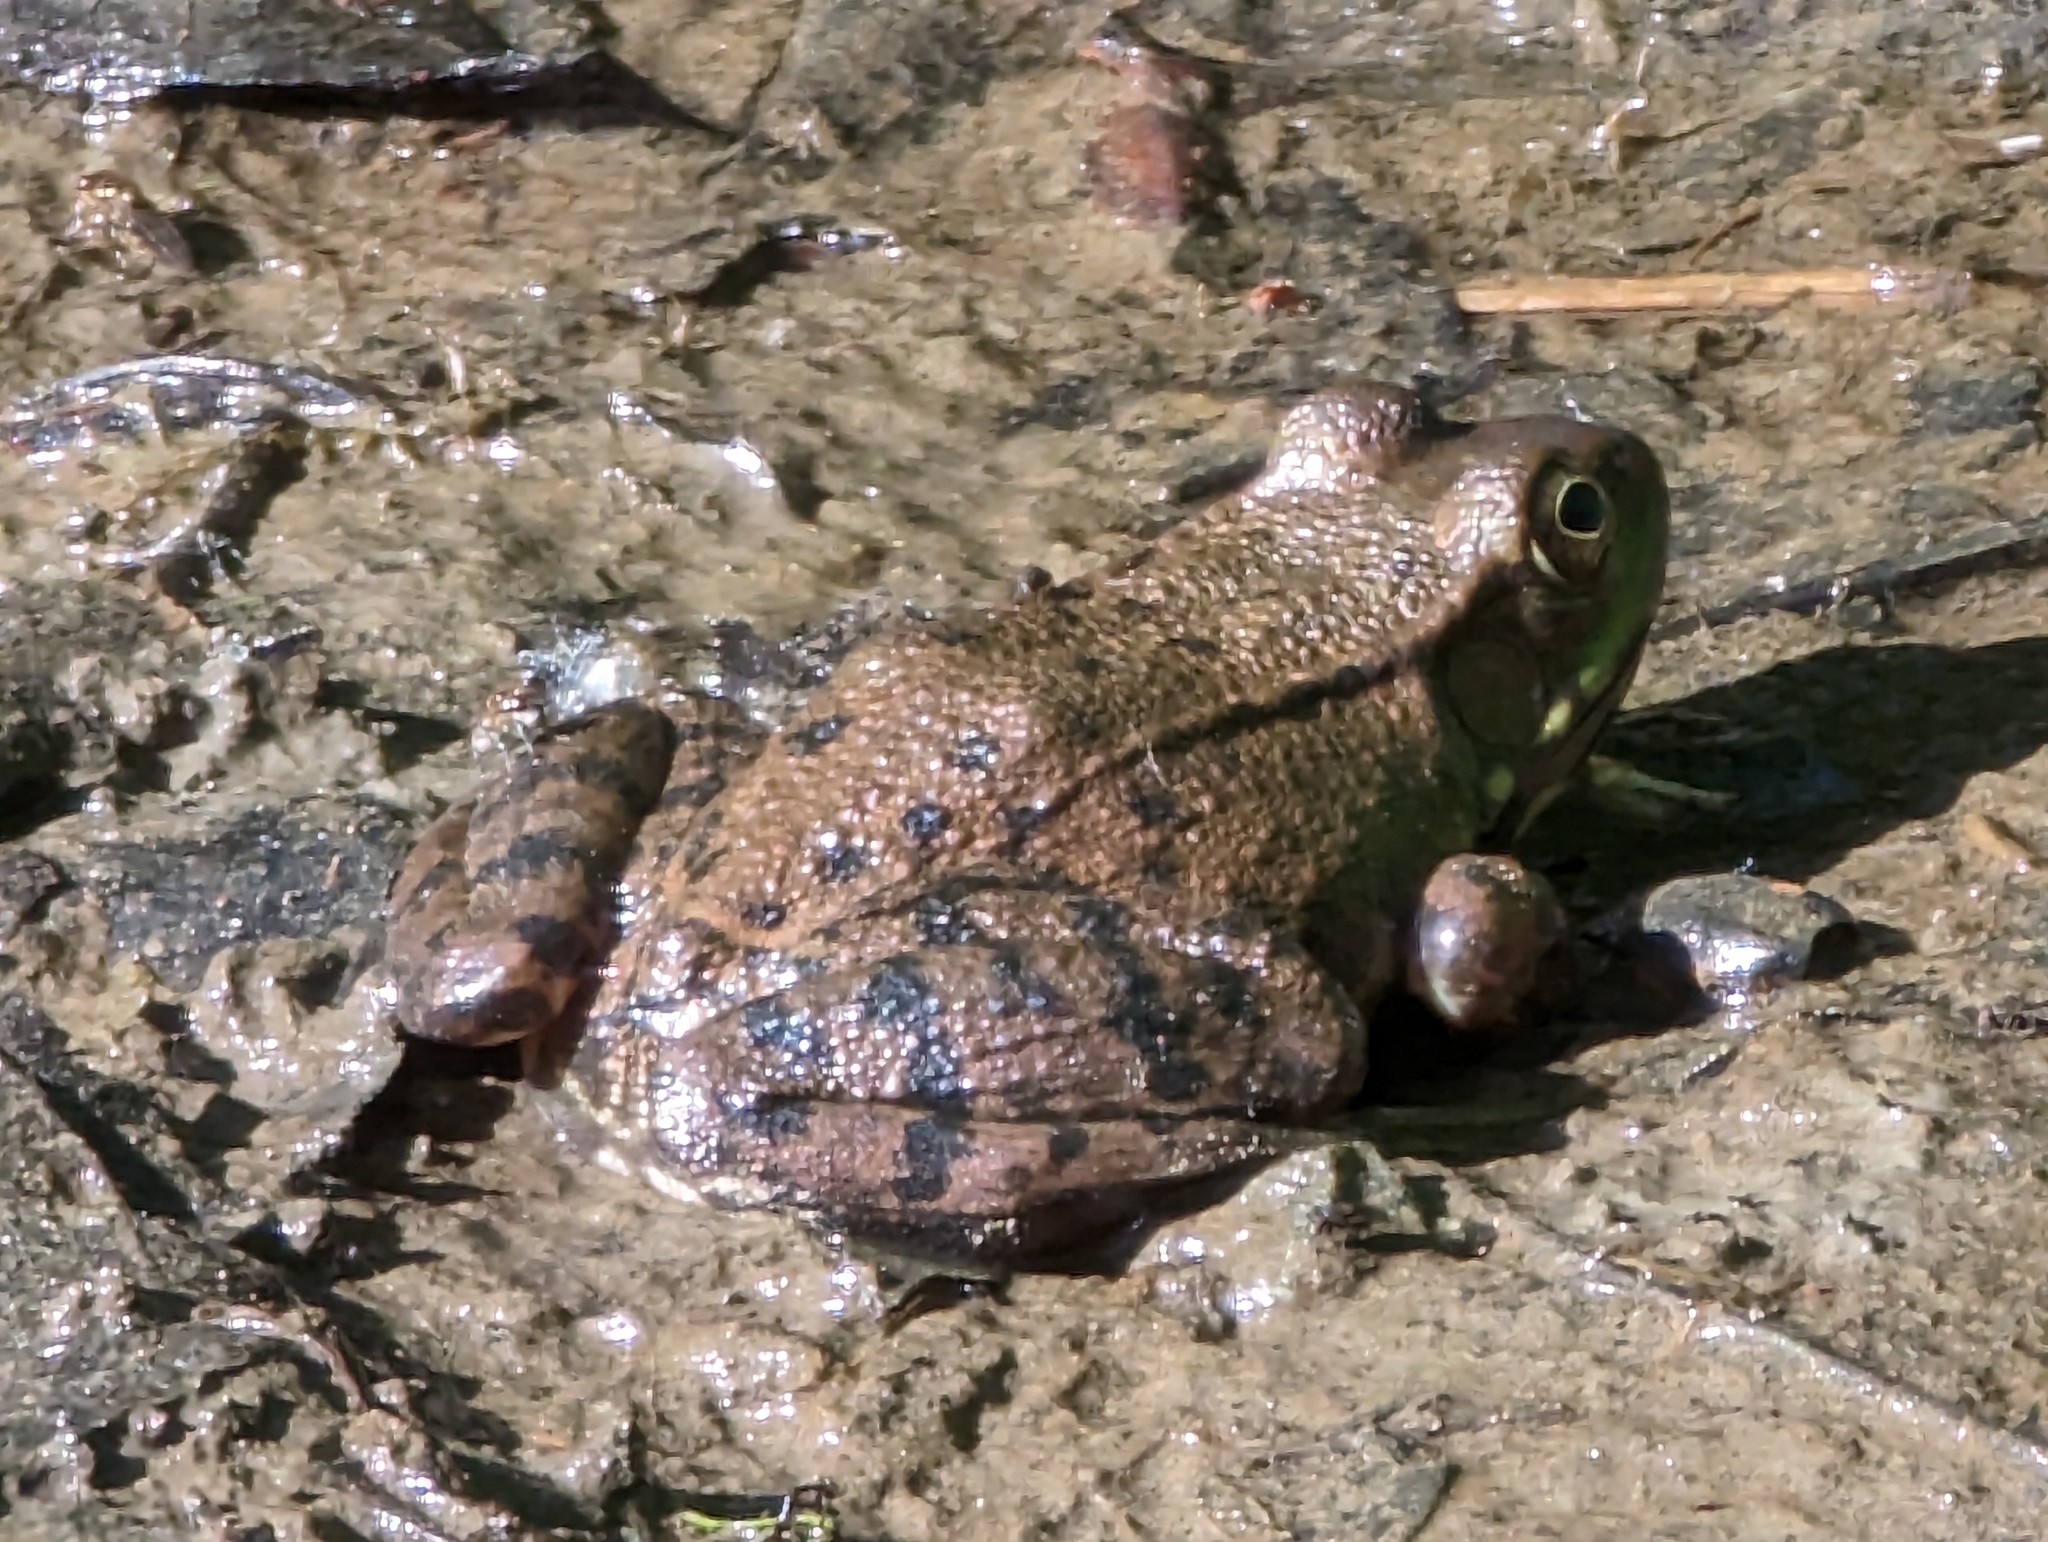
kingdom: Animalia
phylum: Chordata
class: Amphibia
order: Anura
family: Ranidae
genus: Lithobates
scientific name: Lithobates clamitans
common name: Green frog
